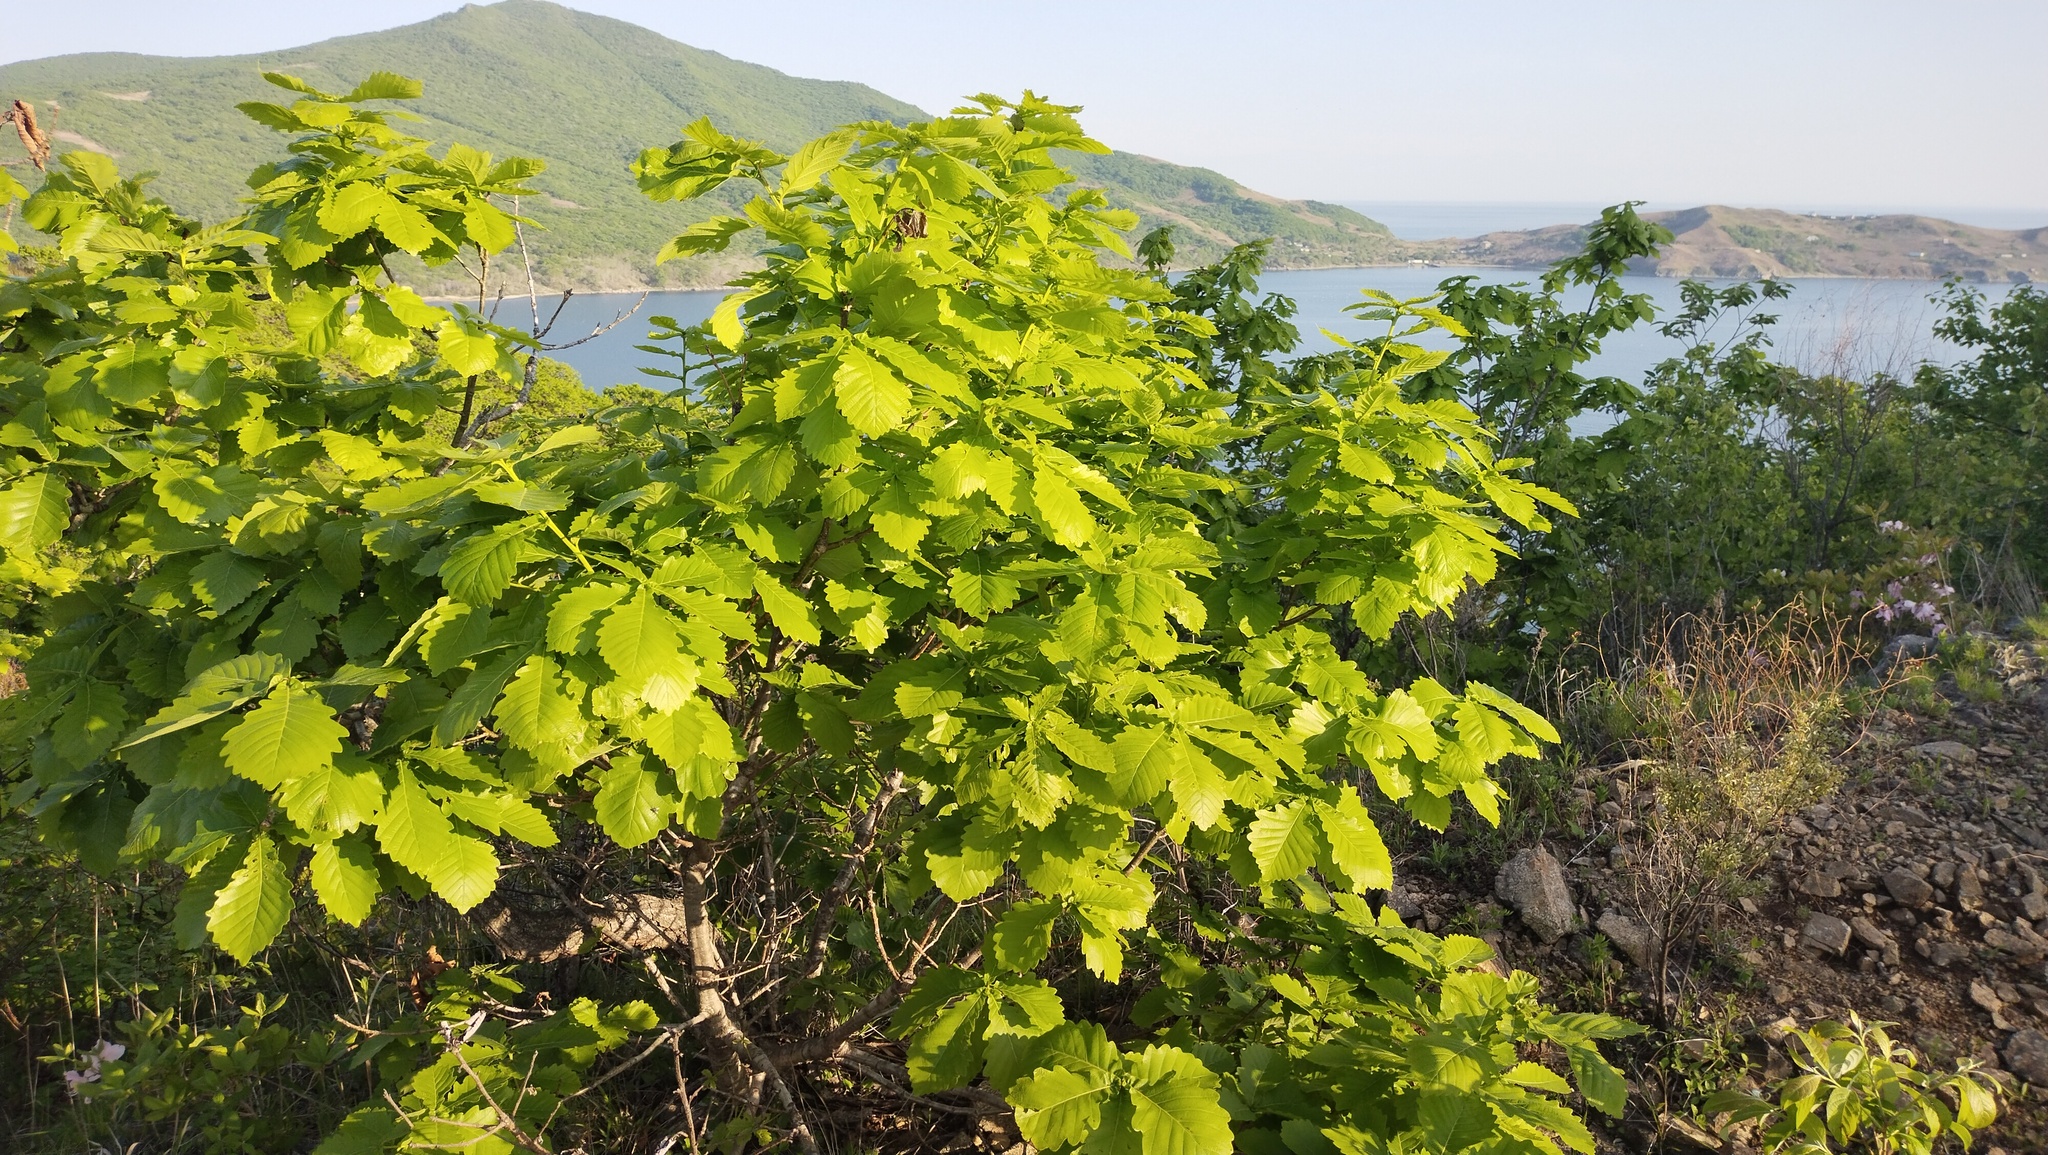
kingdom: Plantae
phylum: Tracheophyta
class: Magnoliopsida
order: Fagales
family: Fagaceae
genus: Quercus
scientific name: Quercus mongolica
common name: Mongolian oak
